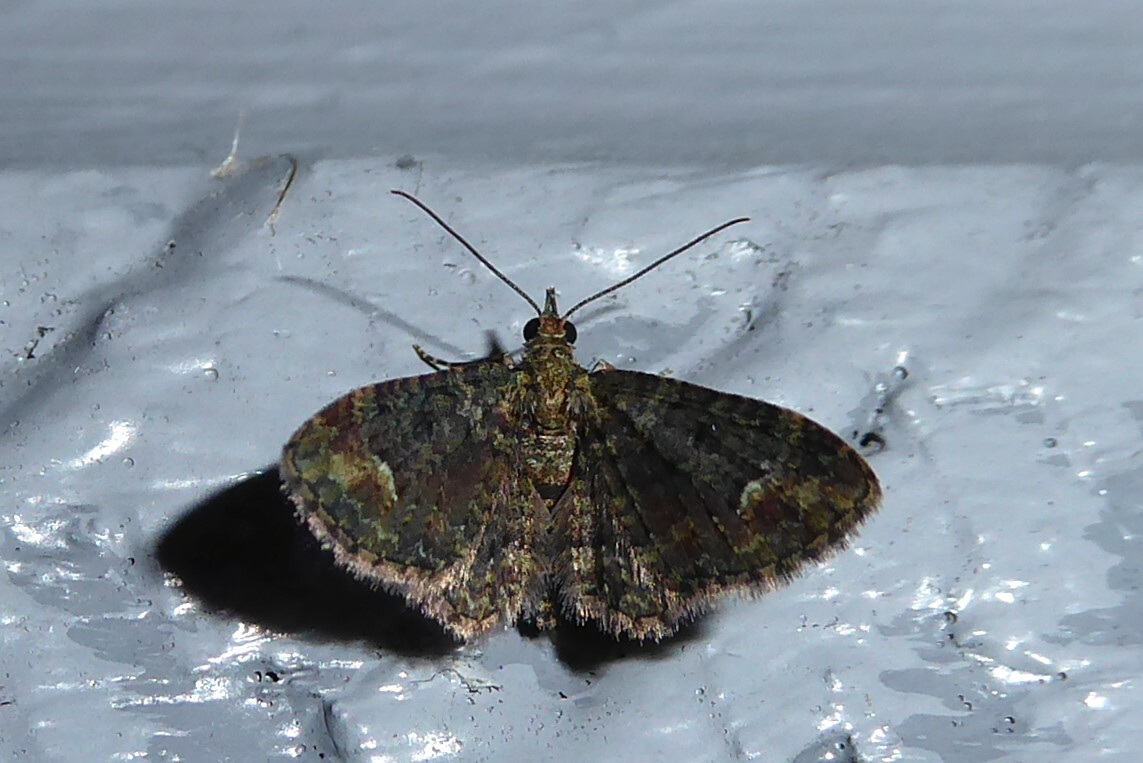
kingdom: Animalia
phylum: Arthropoda
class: Insecta
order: Lepidoptera
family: Geometridae
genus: Pasiphilodes
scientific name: Pasiphilodes testulata
